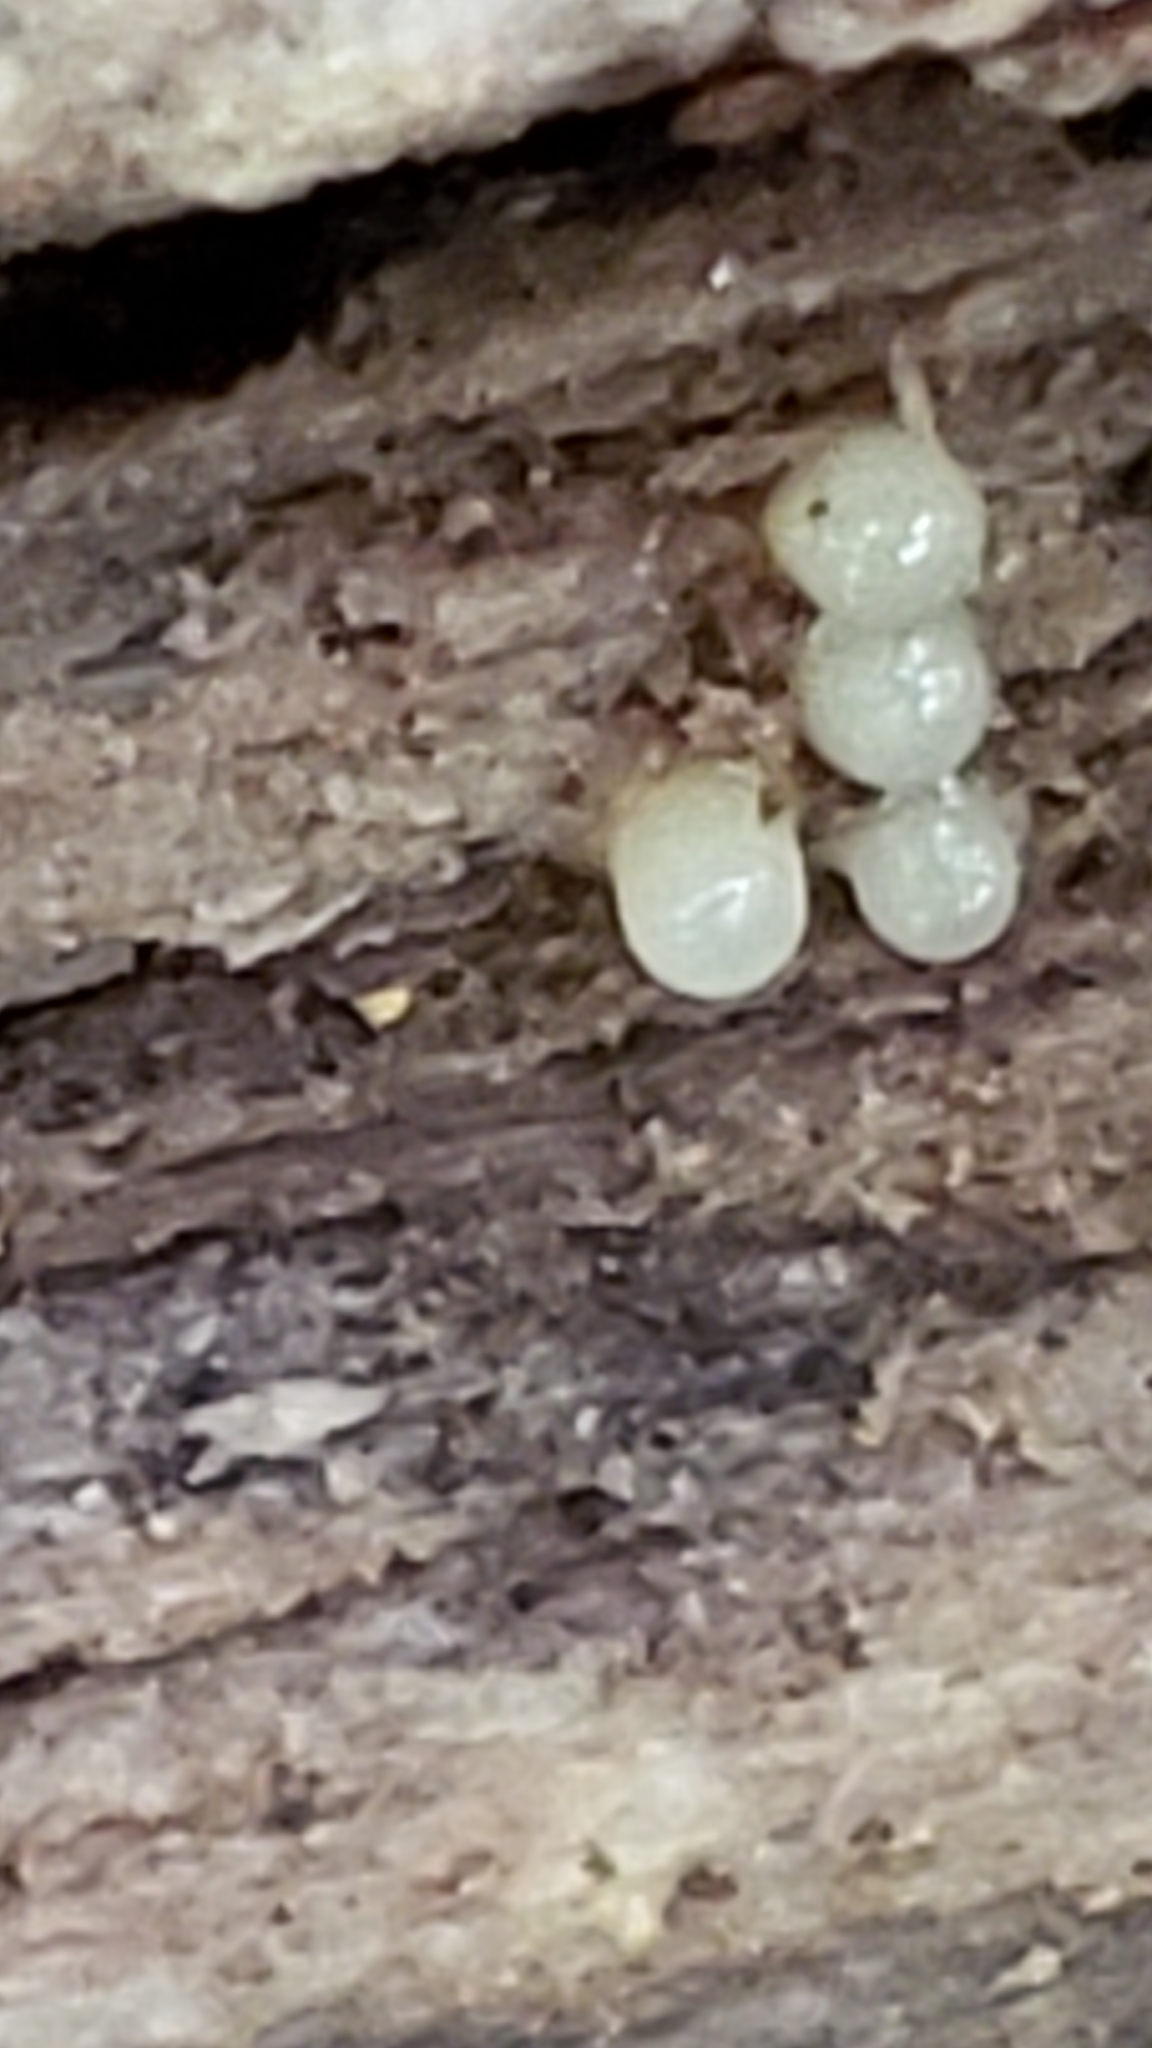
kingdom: Fungi
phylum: Basidiomycota
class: Atractiellomycetes
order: Atractiellales
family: Phleogenaceae
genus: Helicogloea
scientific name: Helicogloea compressa
